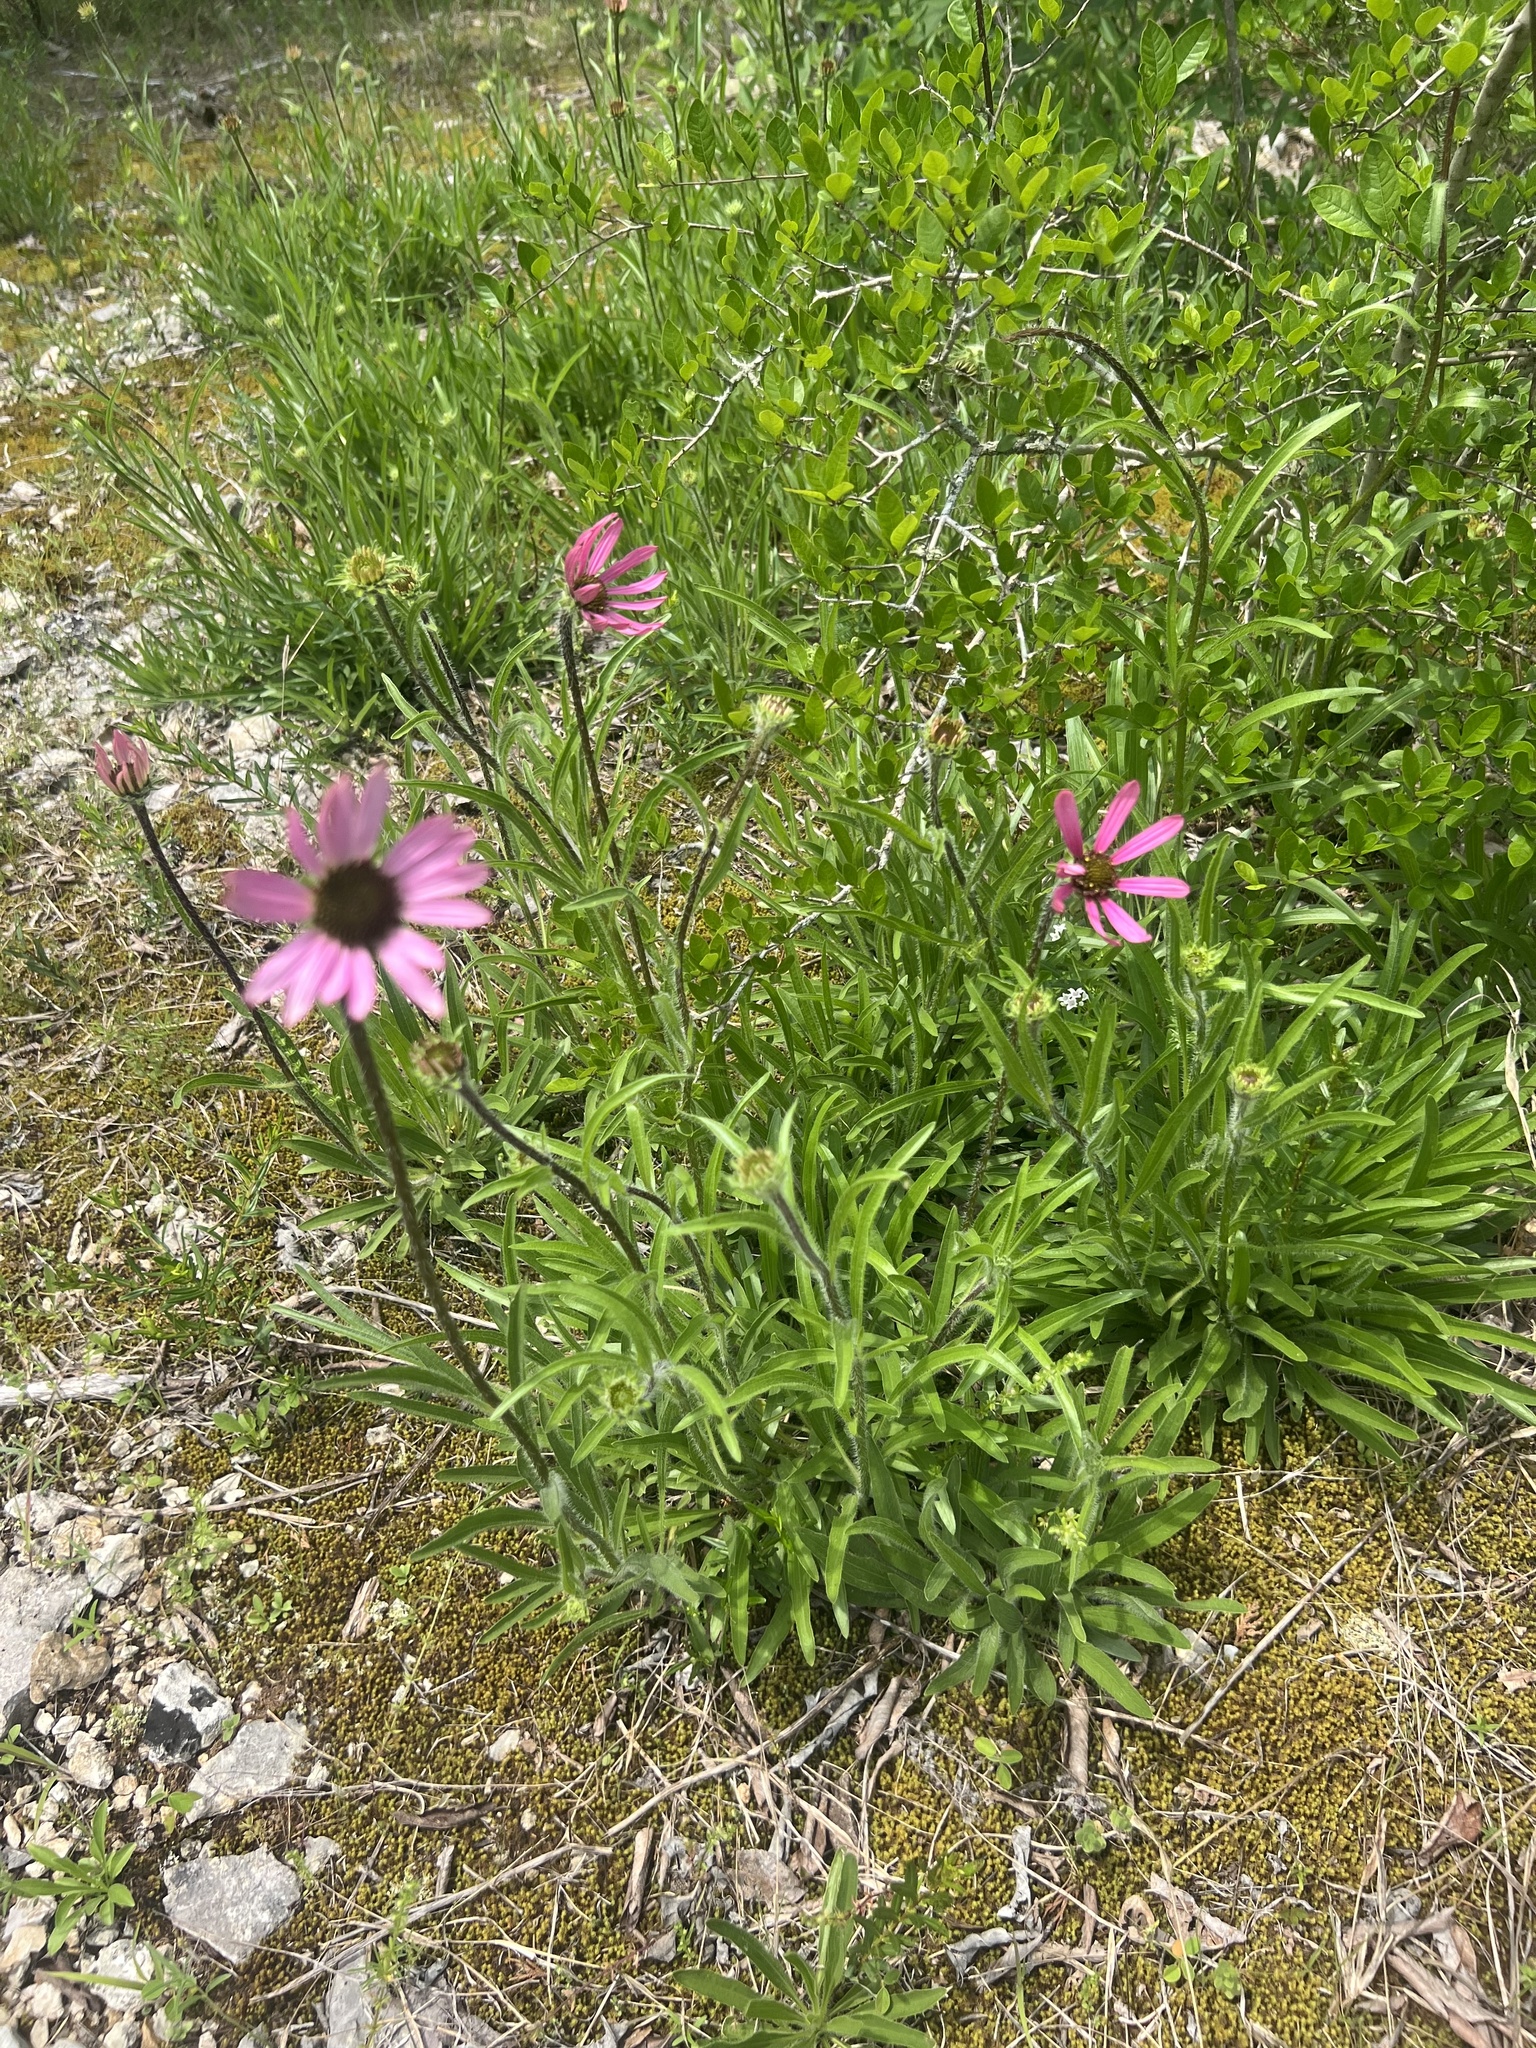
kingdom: Plantae
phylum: Tracheophyta
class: Magnoliopsida
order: Asterales
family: Asteraceae
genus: Echinacea
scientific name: Echinacea tennesseensis
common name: Tennessee purple-coneflower
